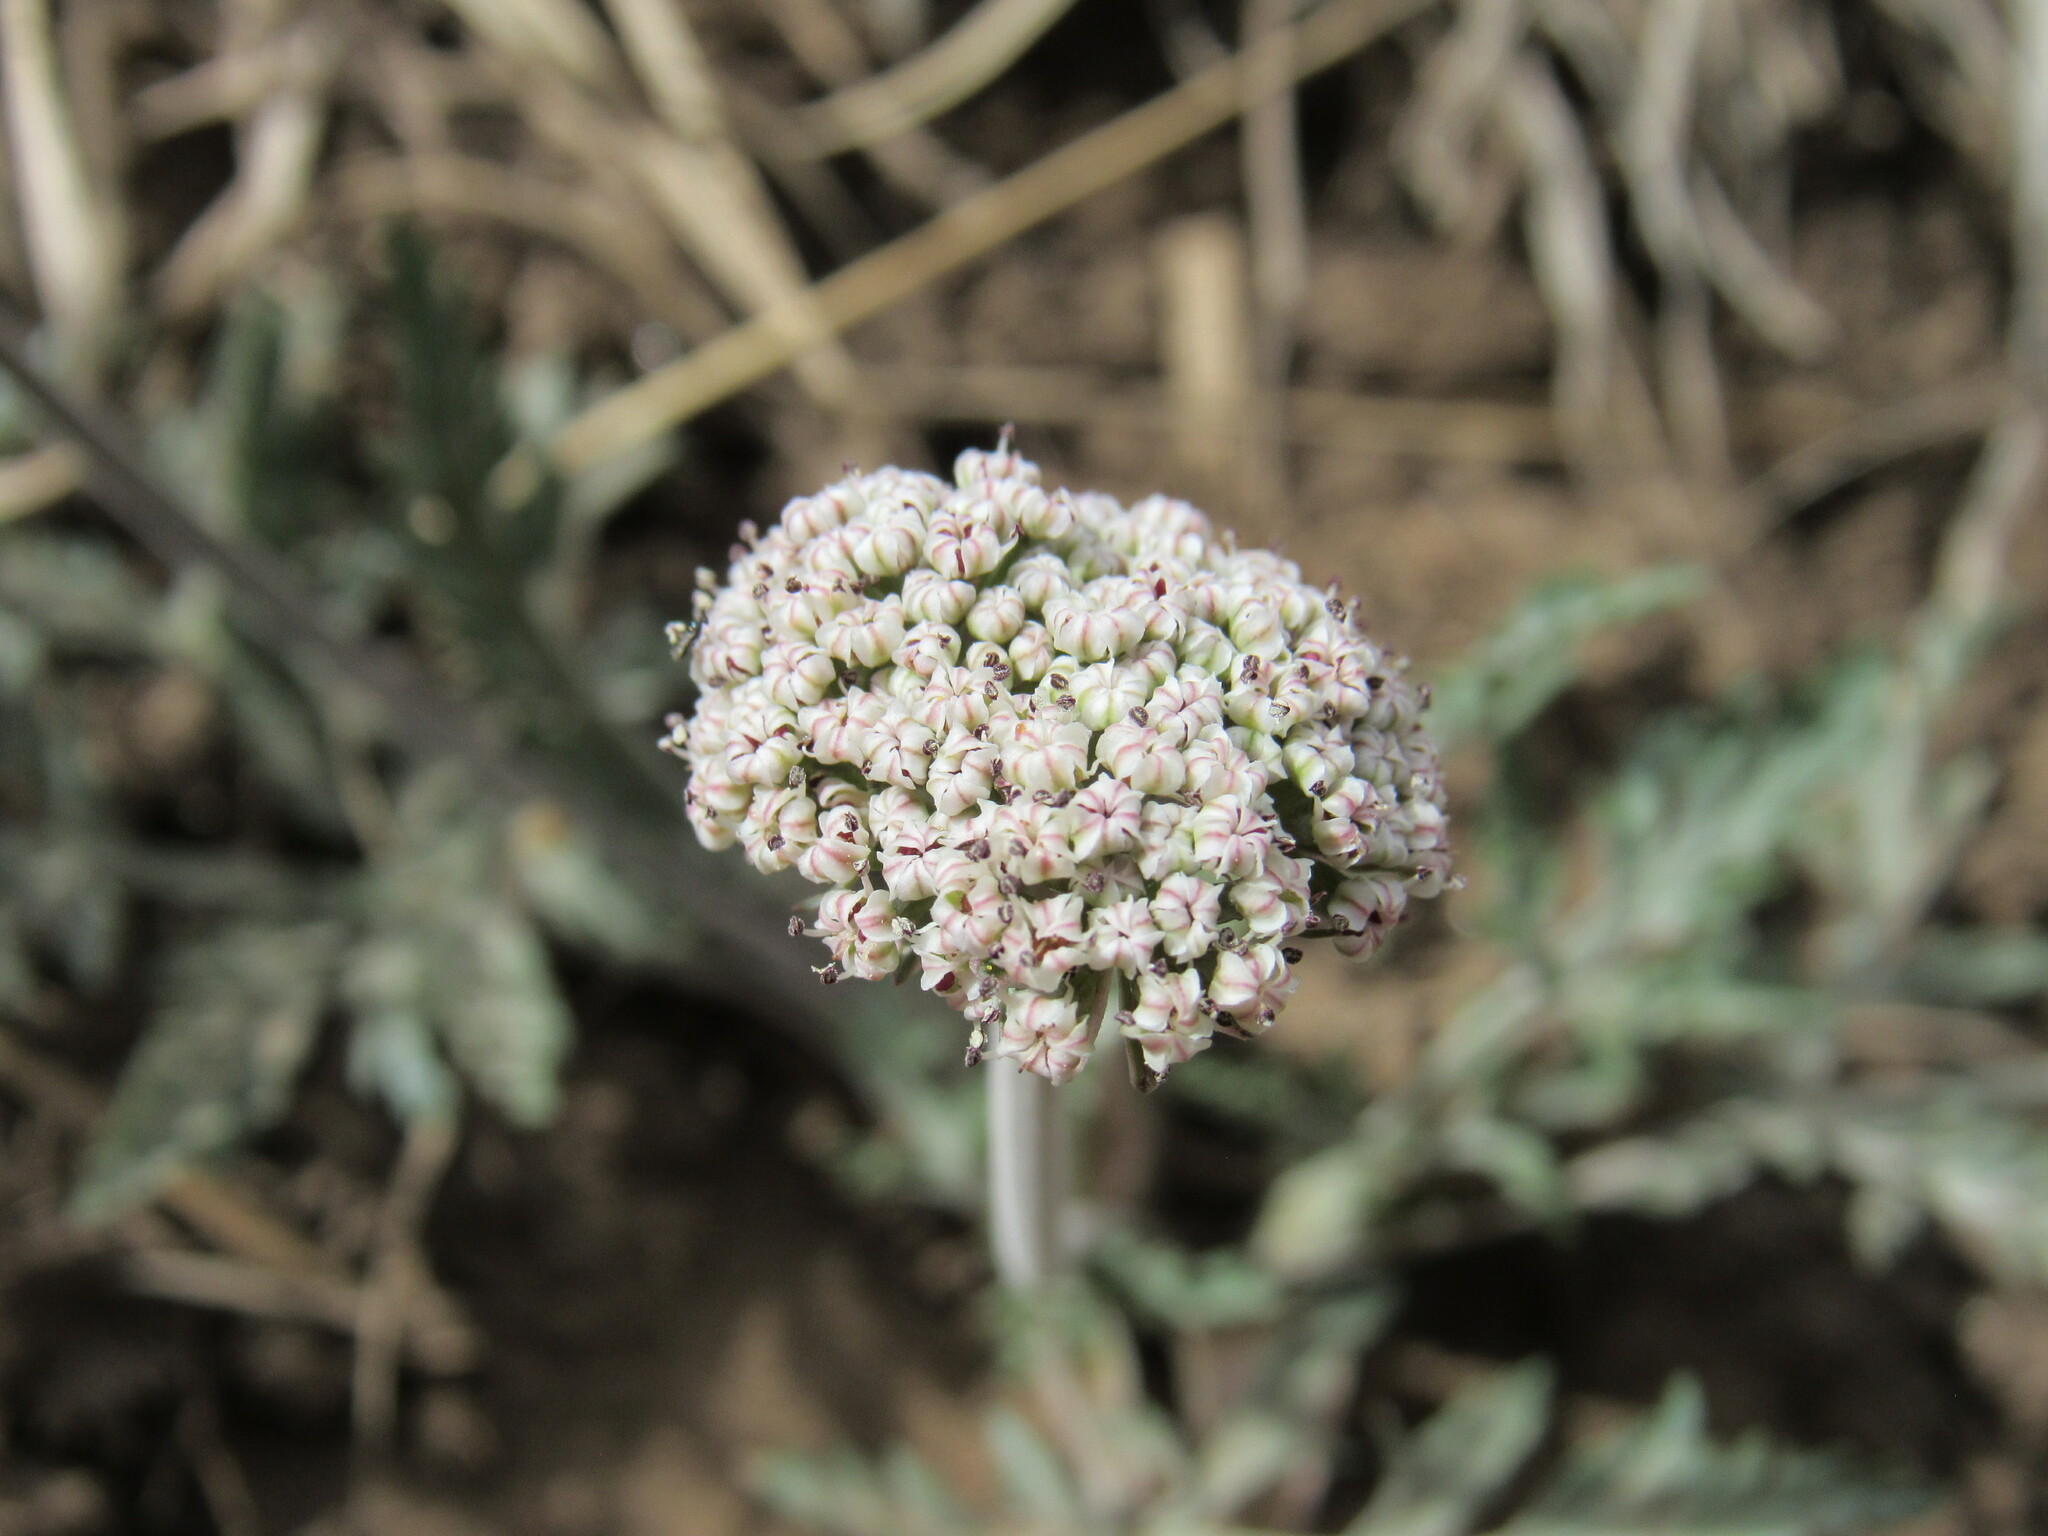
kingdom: Plantae
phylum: Tracheophyta
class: Magnoliopsida
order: Apiales
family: Apiaceae
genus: Lomatium
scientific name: Lomatium orientale
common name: Eastern cous
